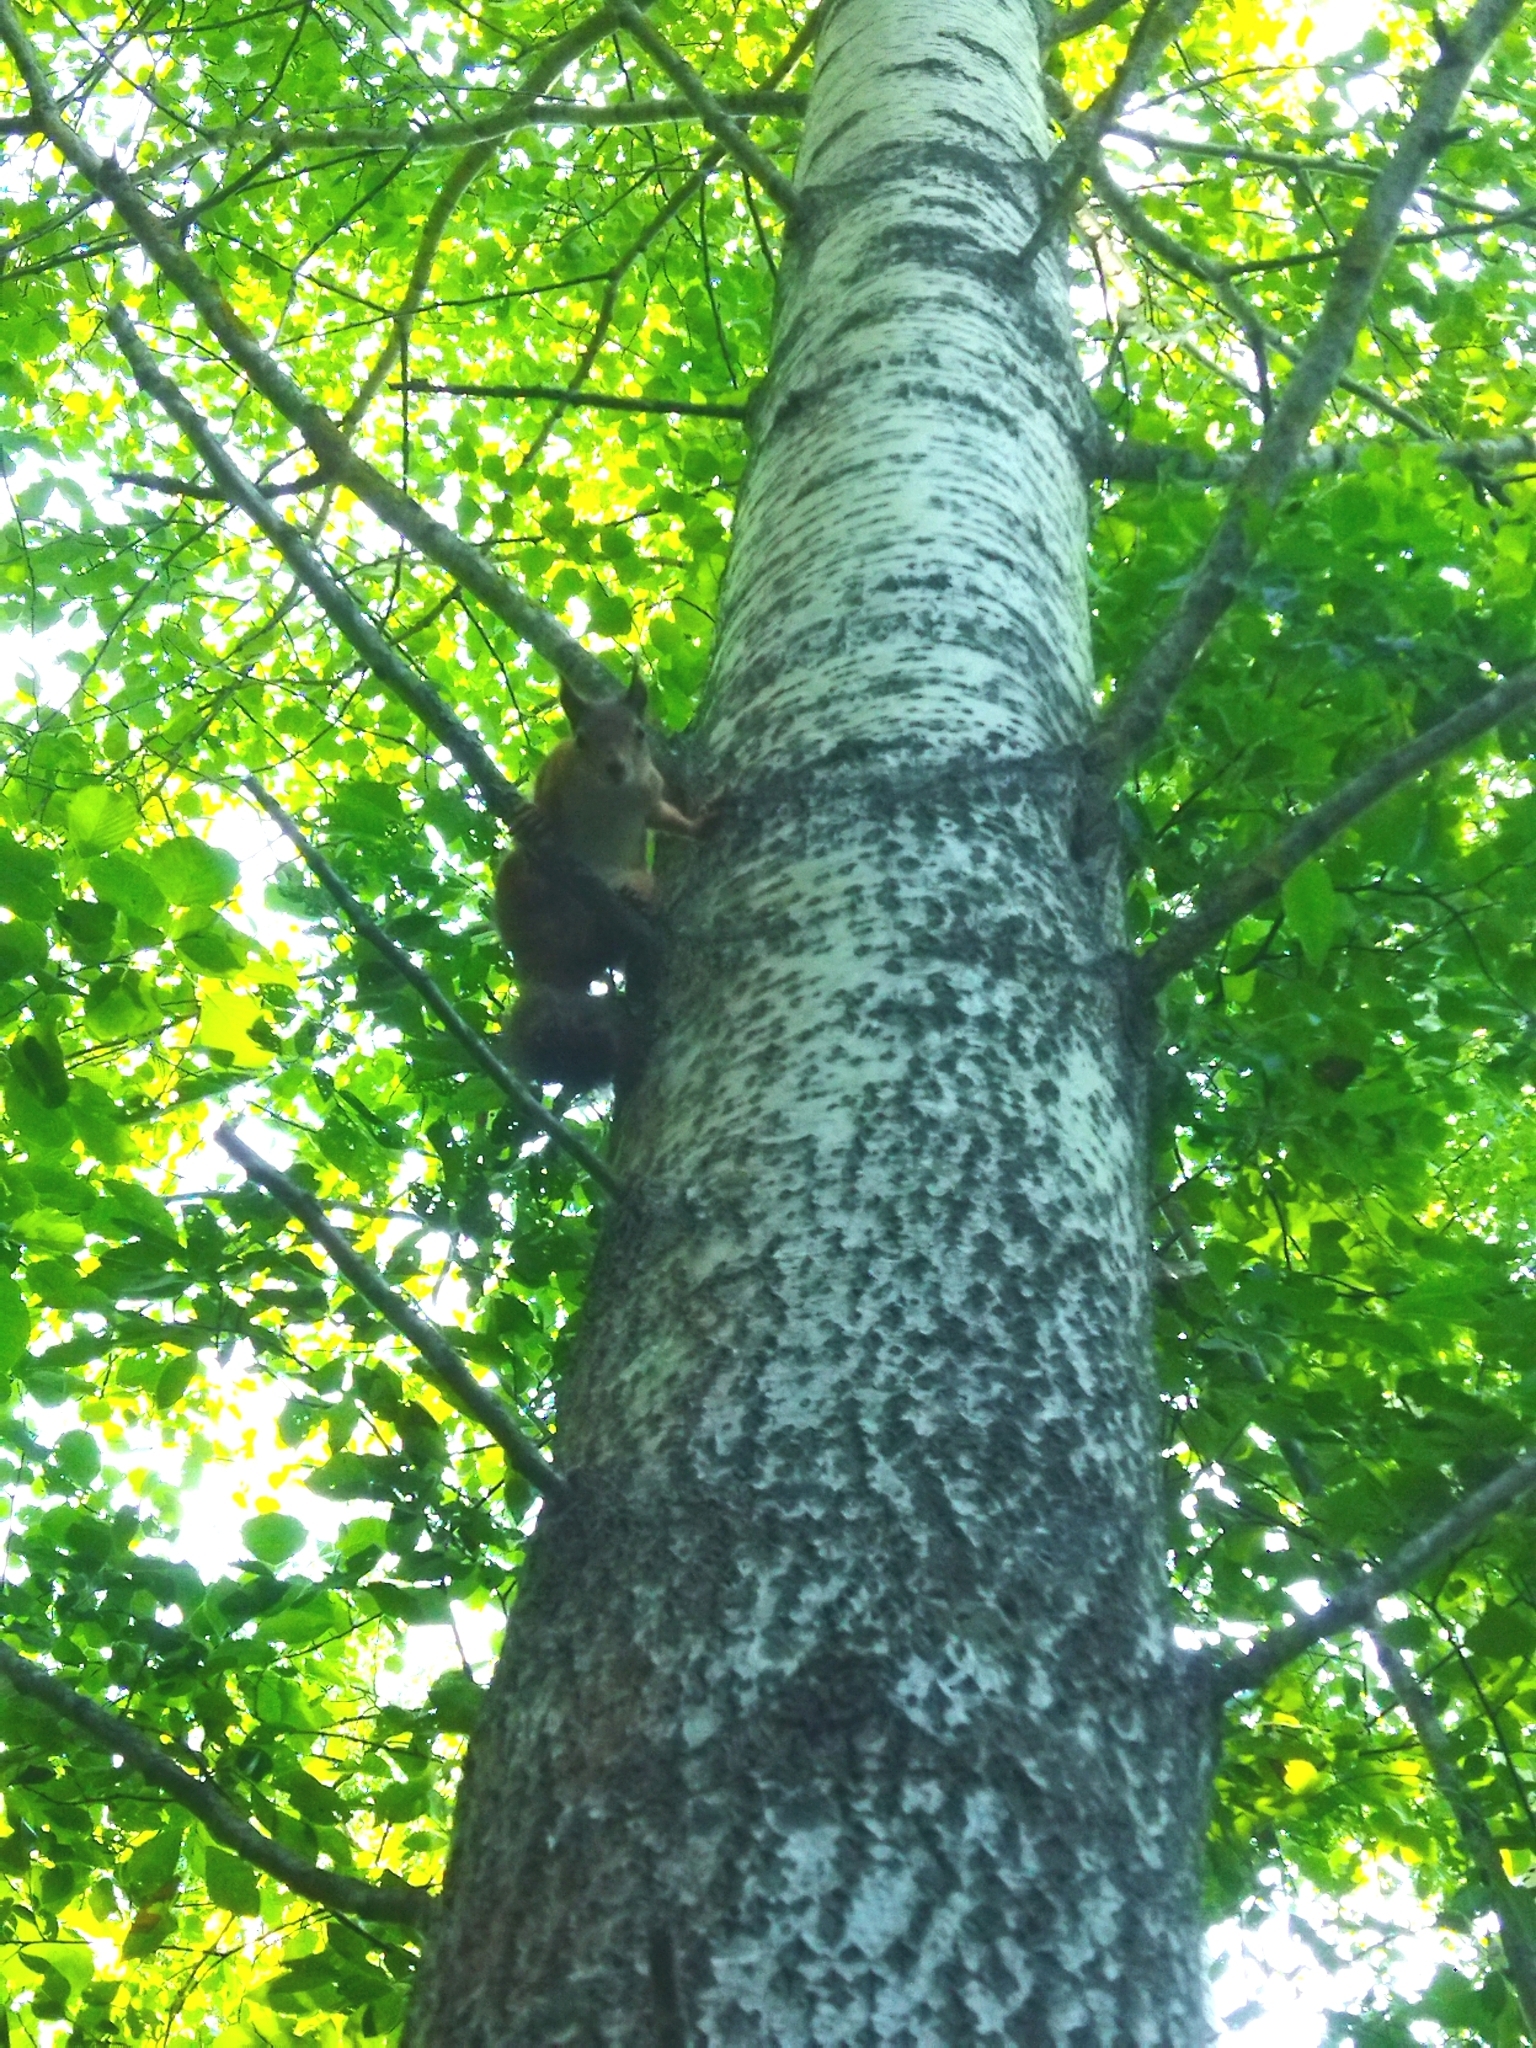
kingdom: Animalia
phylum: Chordata
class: Mammalia
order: Rodentia
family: Sciuridae
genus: Sciurus
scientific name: Sciurus vulgaris
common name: Eurasian red squirrel
